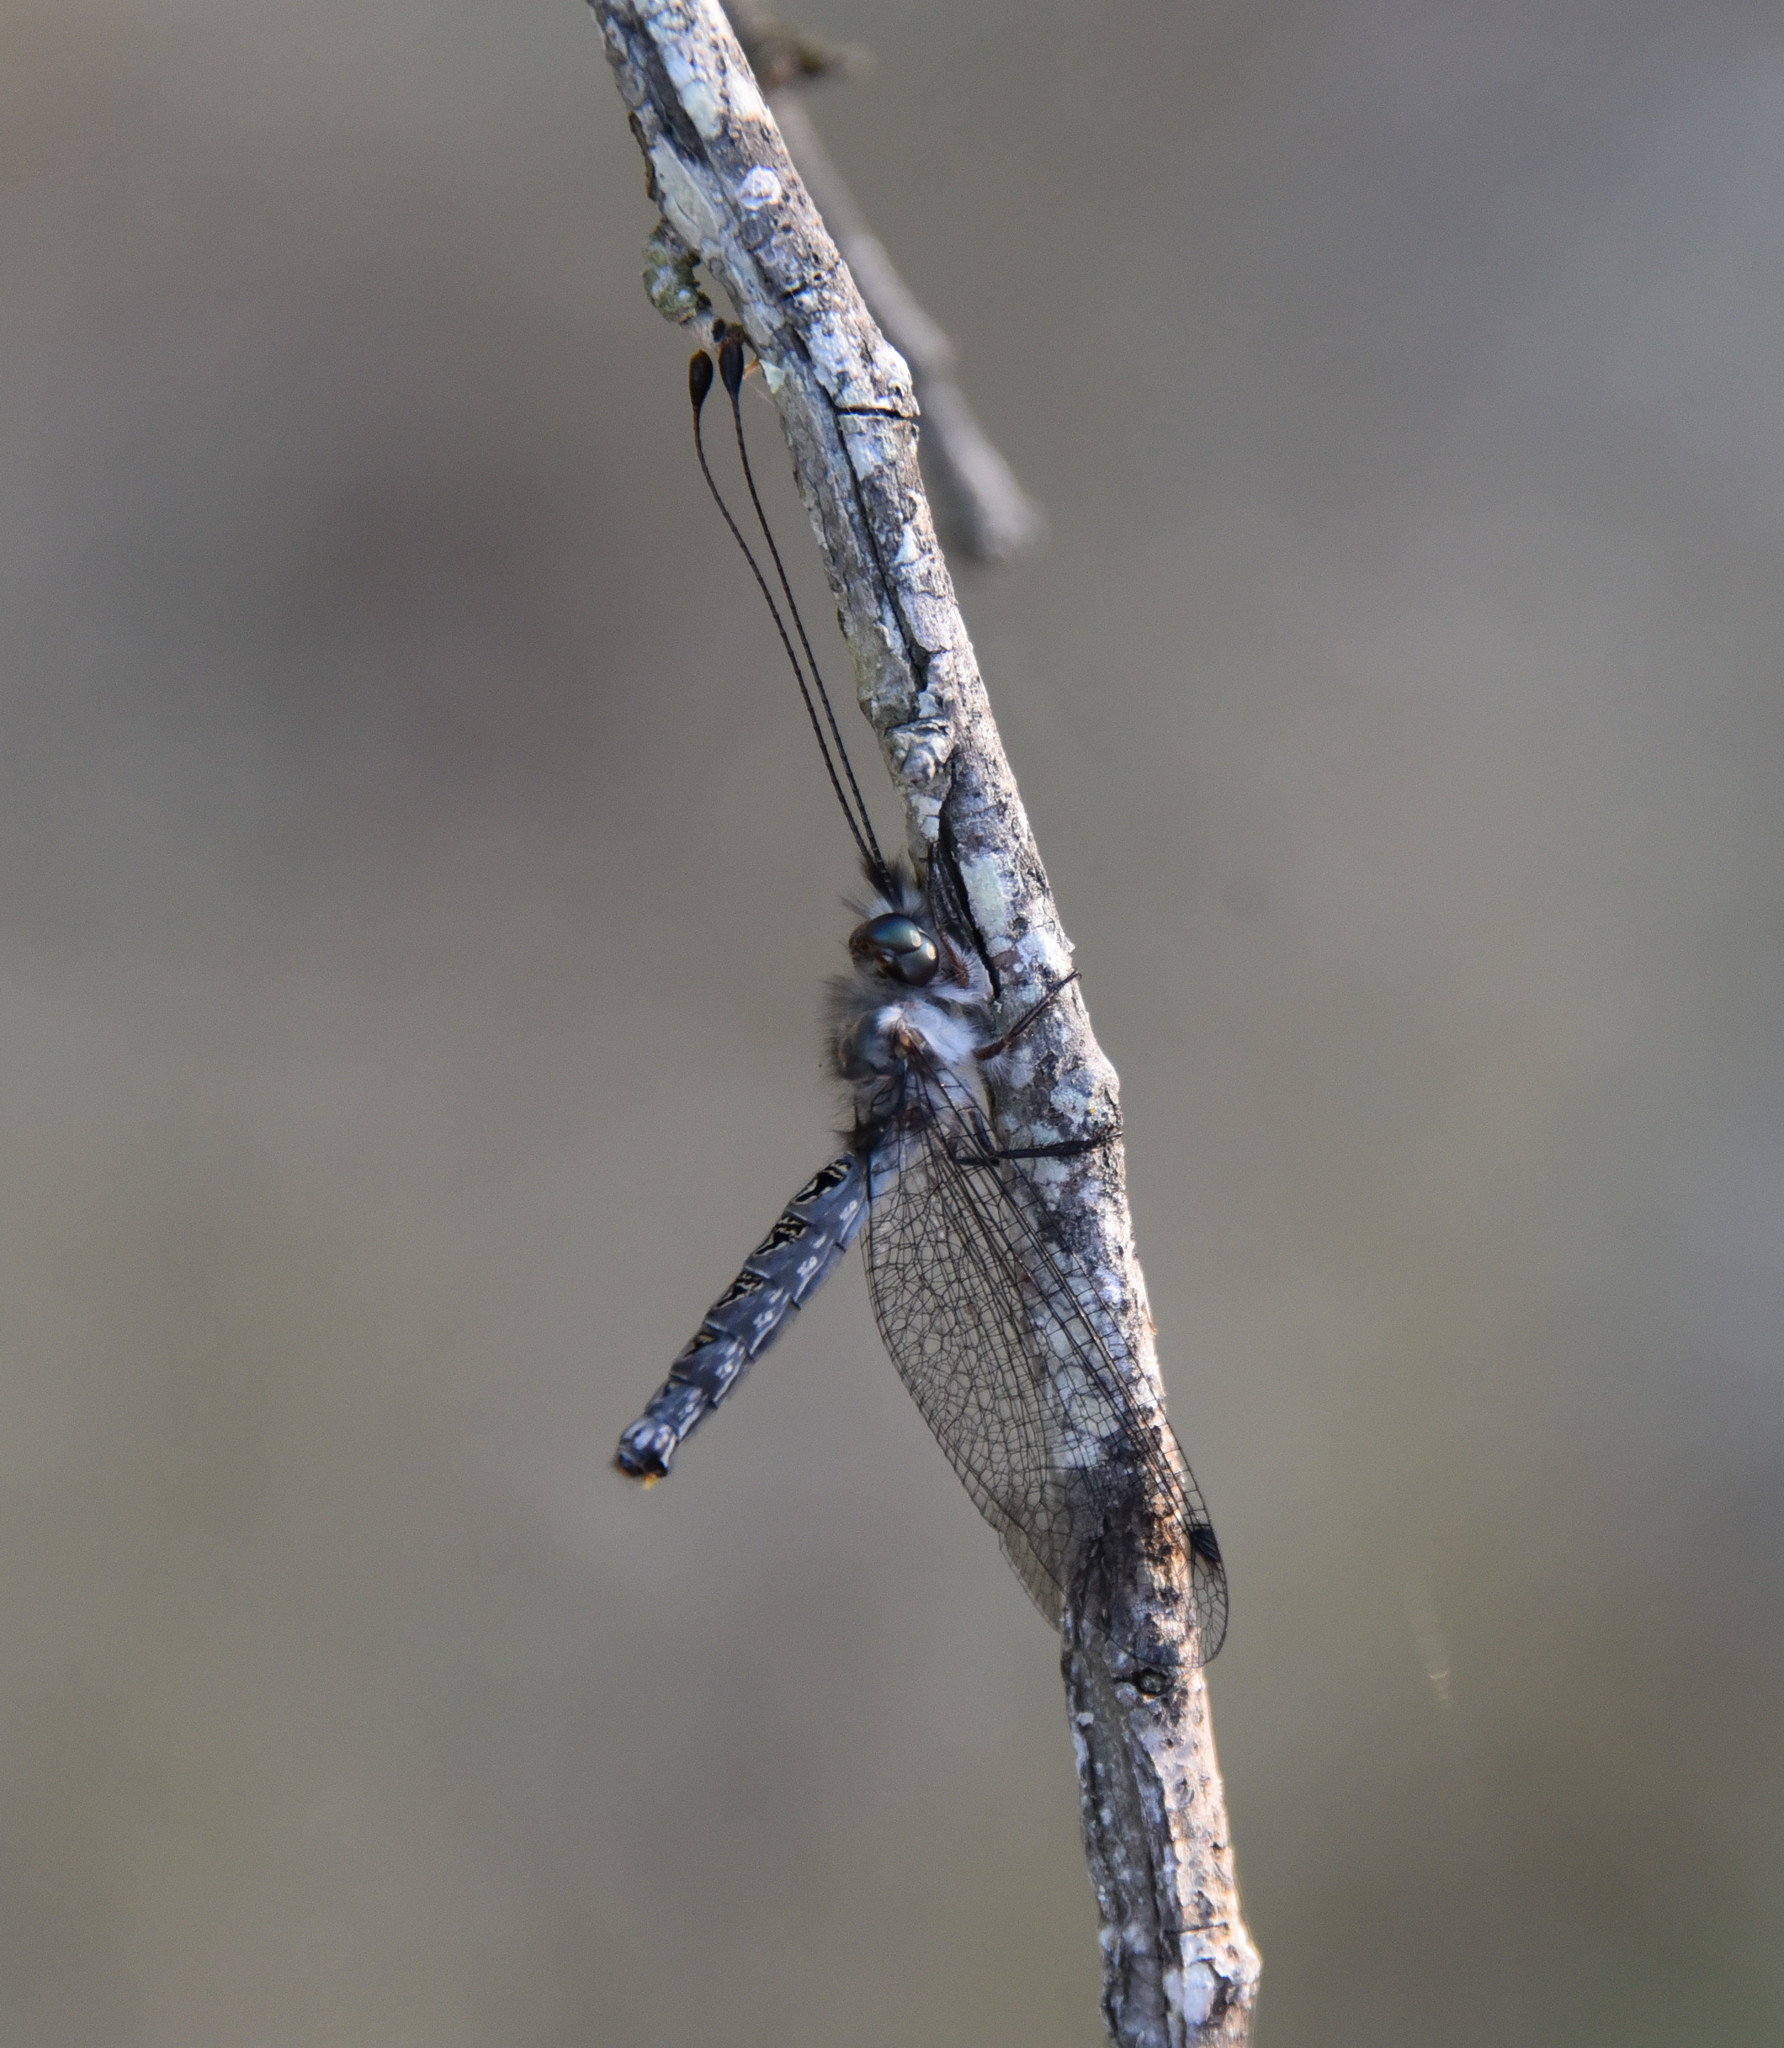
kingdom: Animalia
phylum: Arthropoda
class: Insecta
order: Neuroptera
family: Ascalaphidae
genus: Ululodes
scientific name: Ululodes macleayanus
